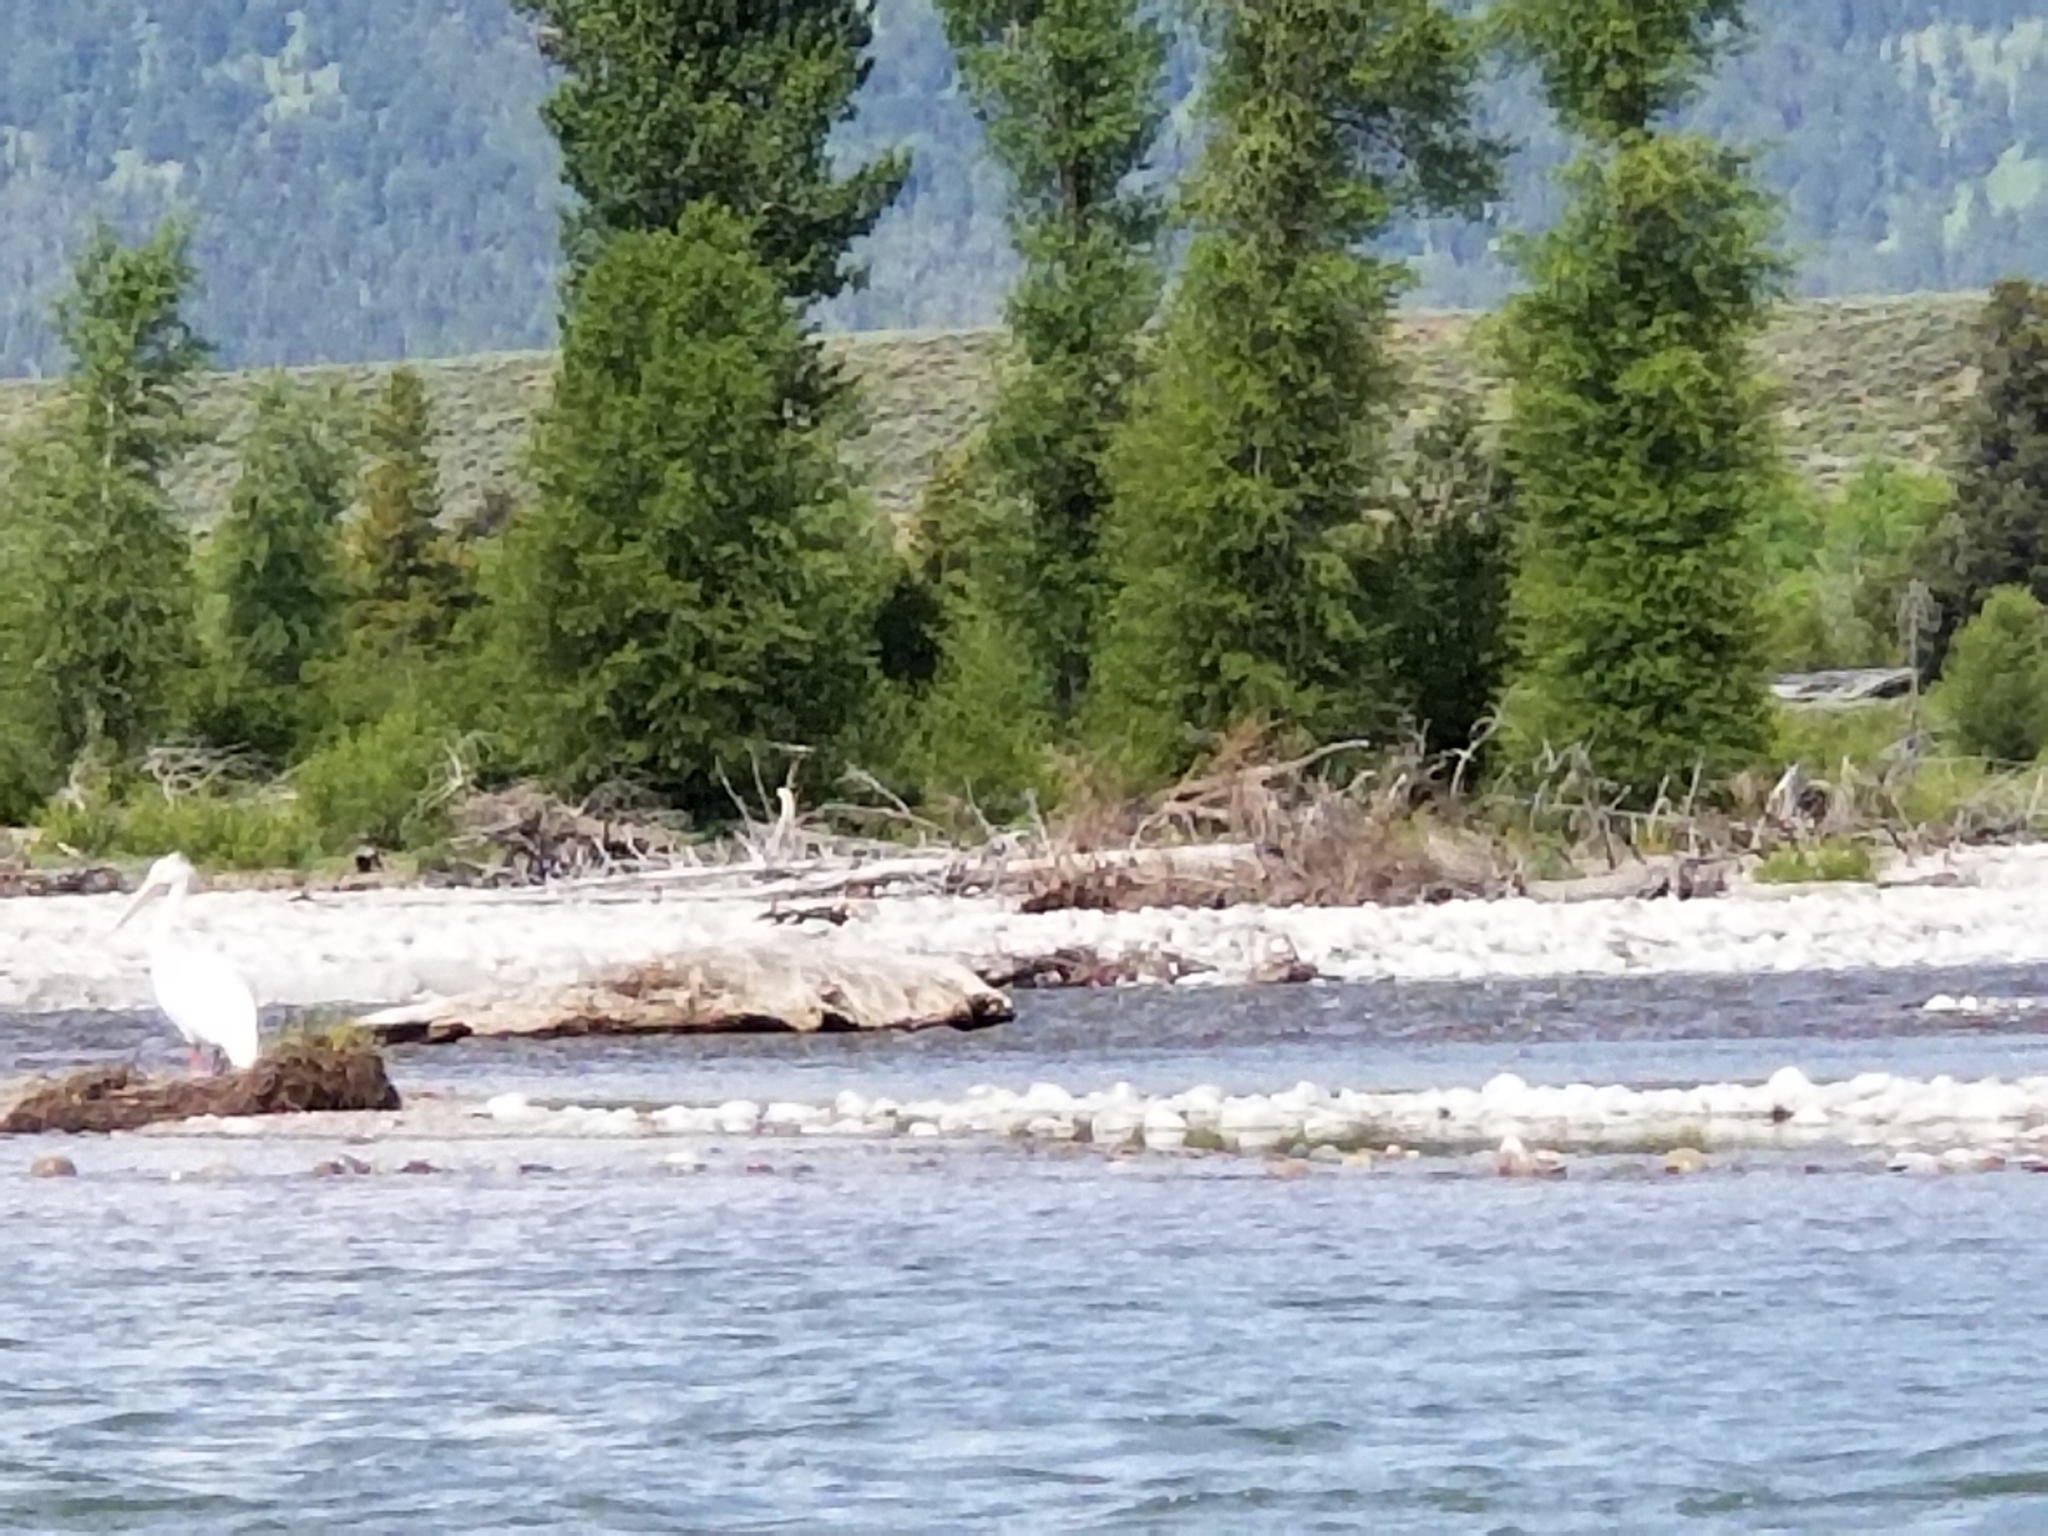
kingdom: Animalia
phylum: Chordata
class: Aves
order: Pelecaniformes
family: Pelecanidae
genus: Pelecanus
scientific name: Pelecanus erythrorhynchos
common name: American white pelican
